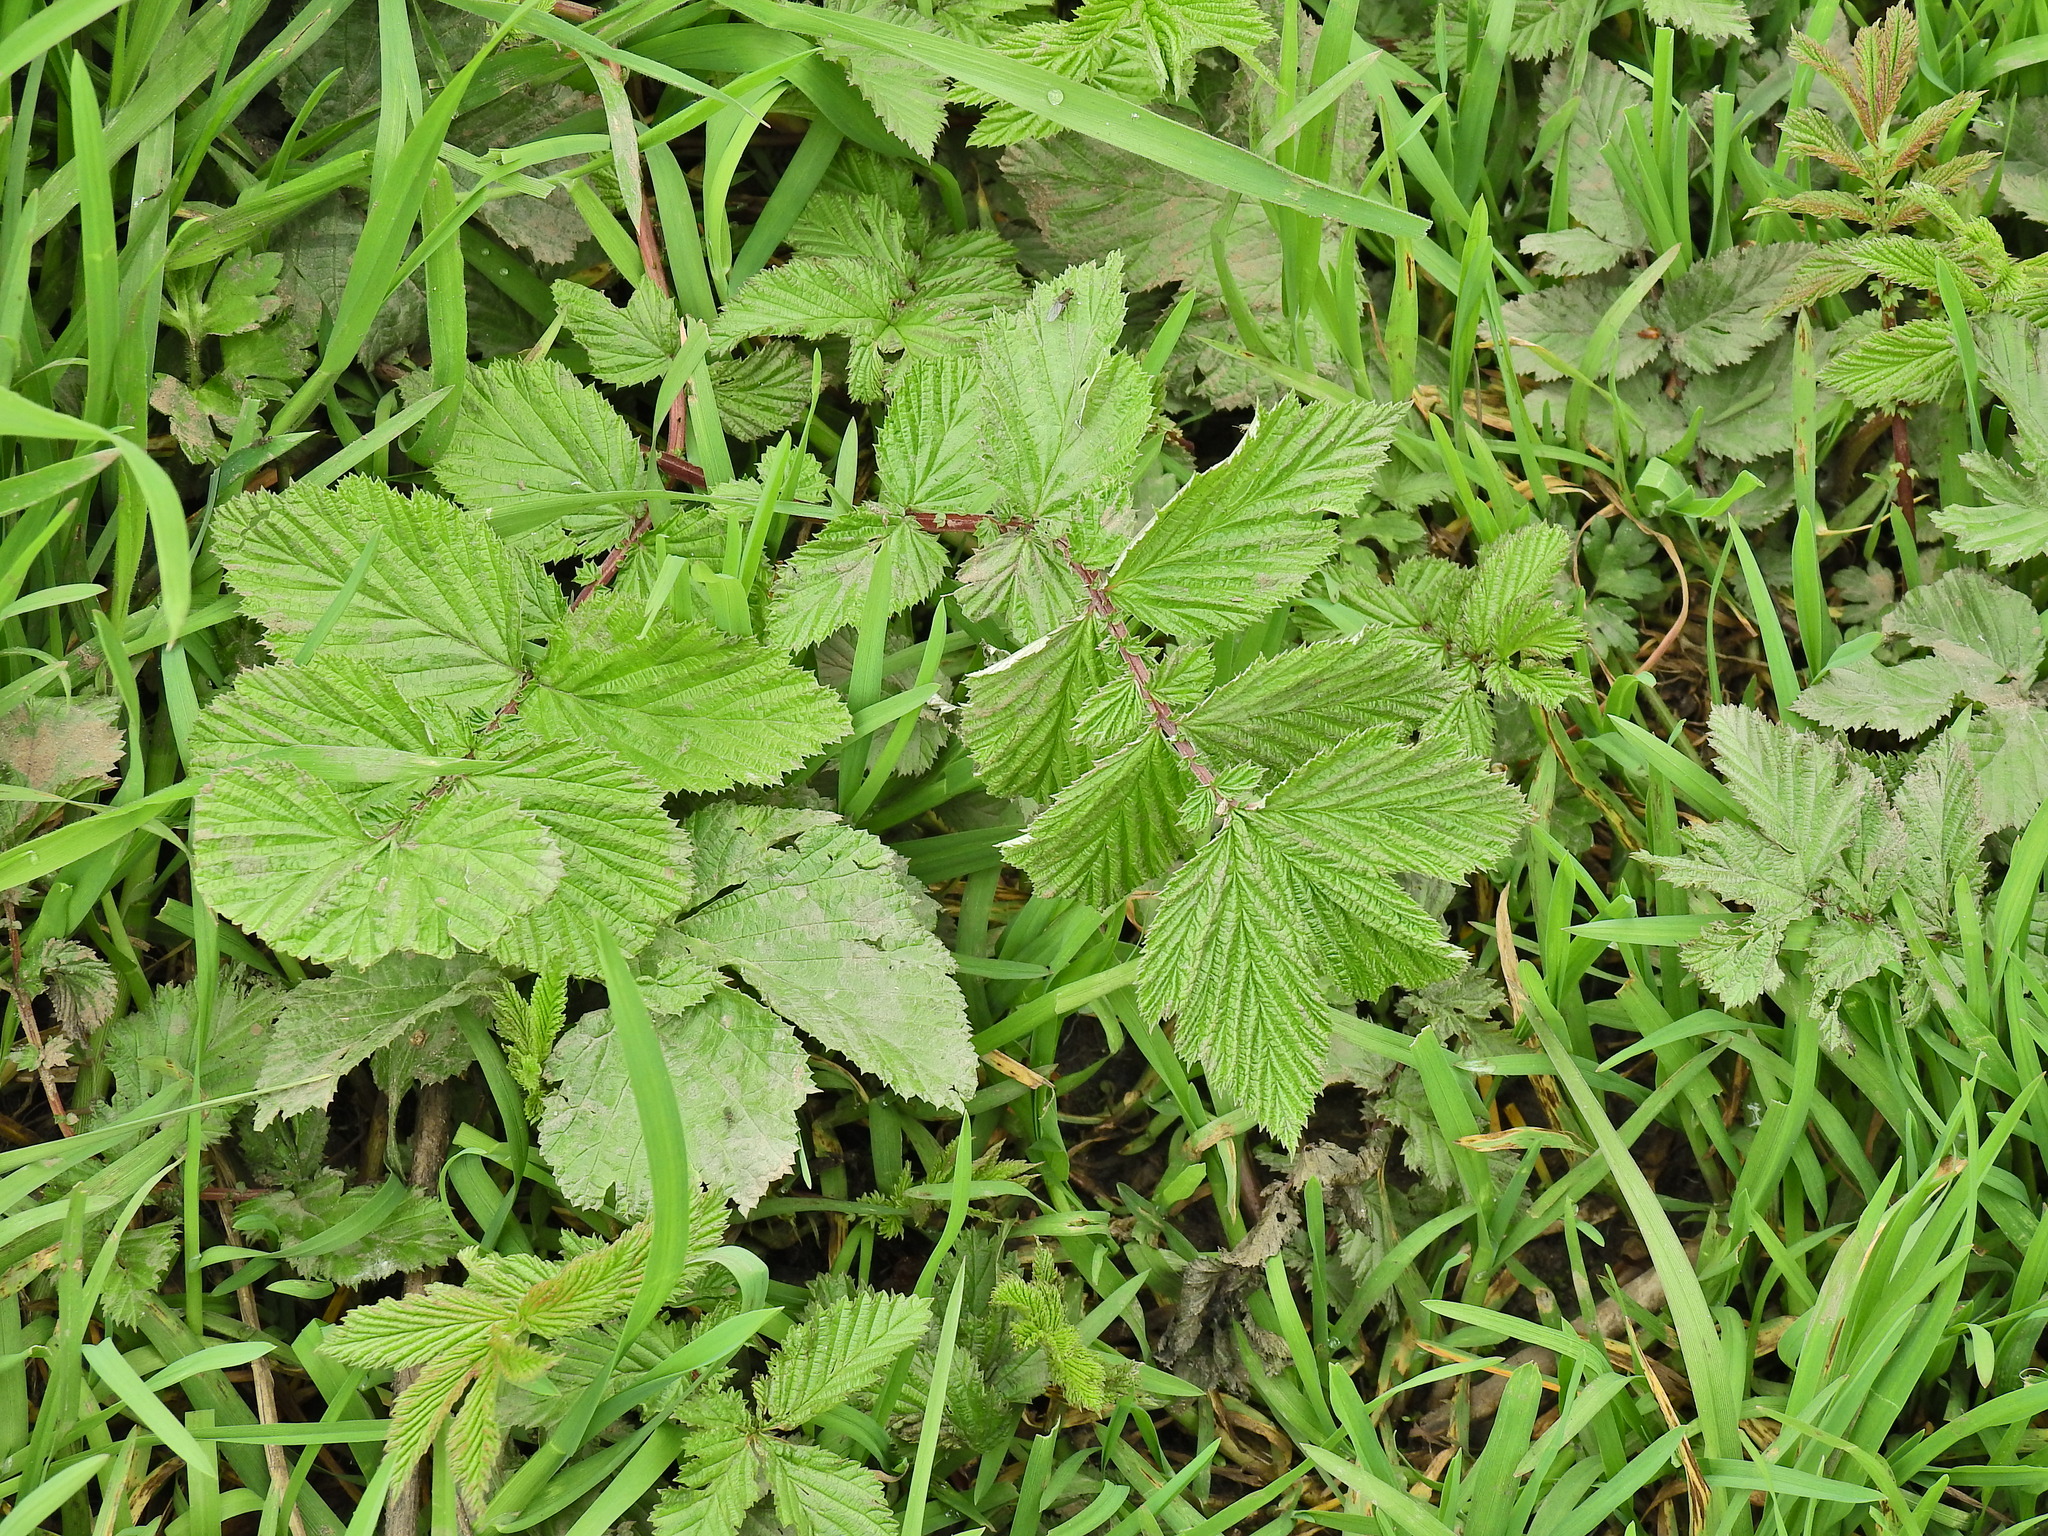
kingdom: Plantae
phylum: Tracheophyta
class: Magnoliopsida
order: Rosales
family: Rosaceae
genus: Filipendula
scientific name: Filipendula ulmaria
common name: Meadowsweet
